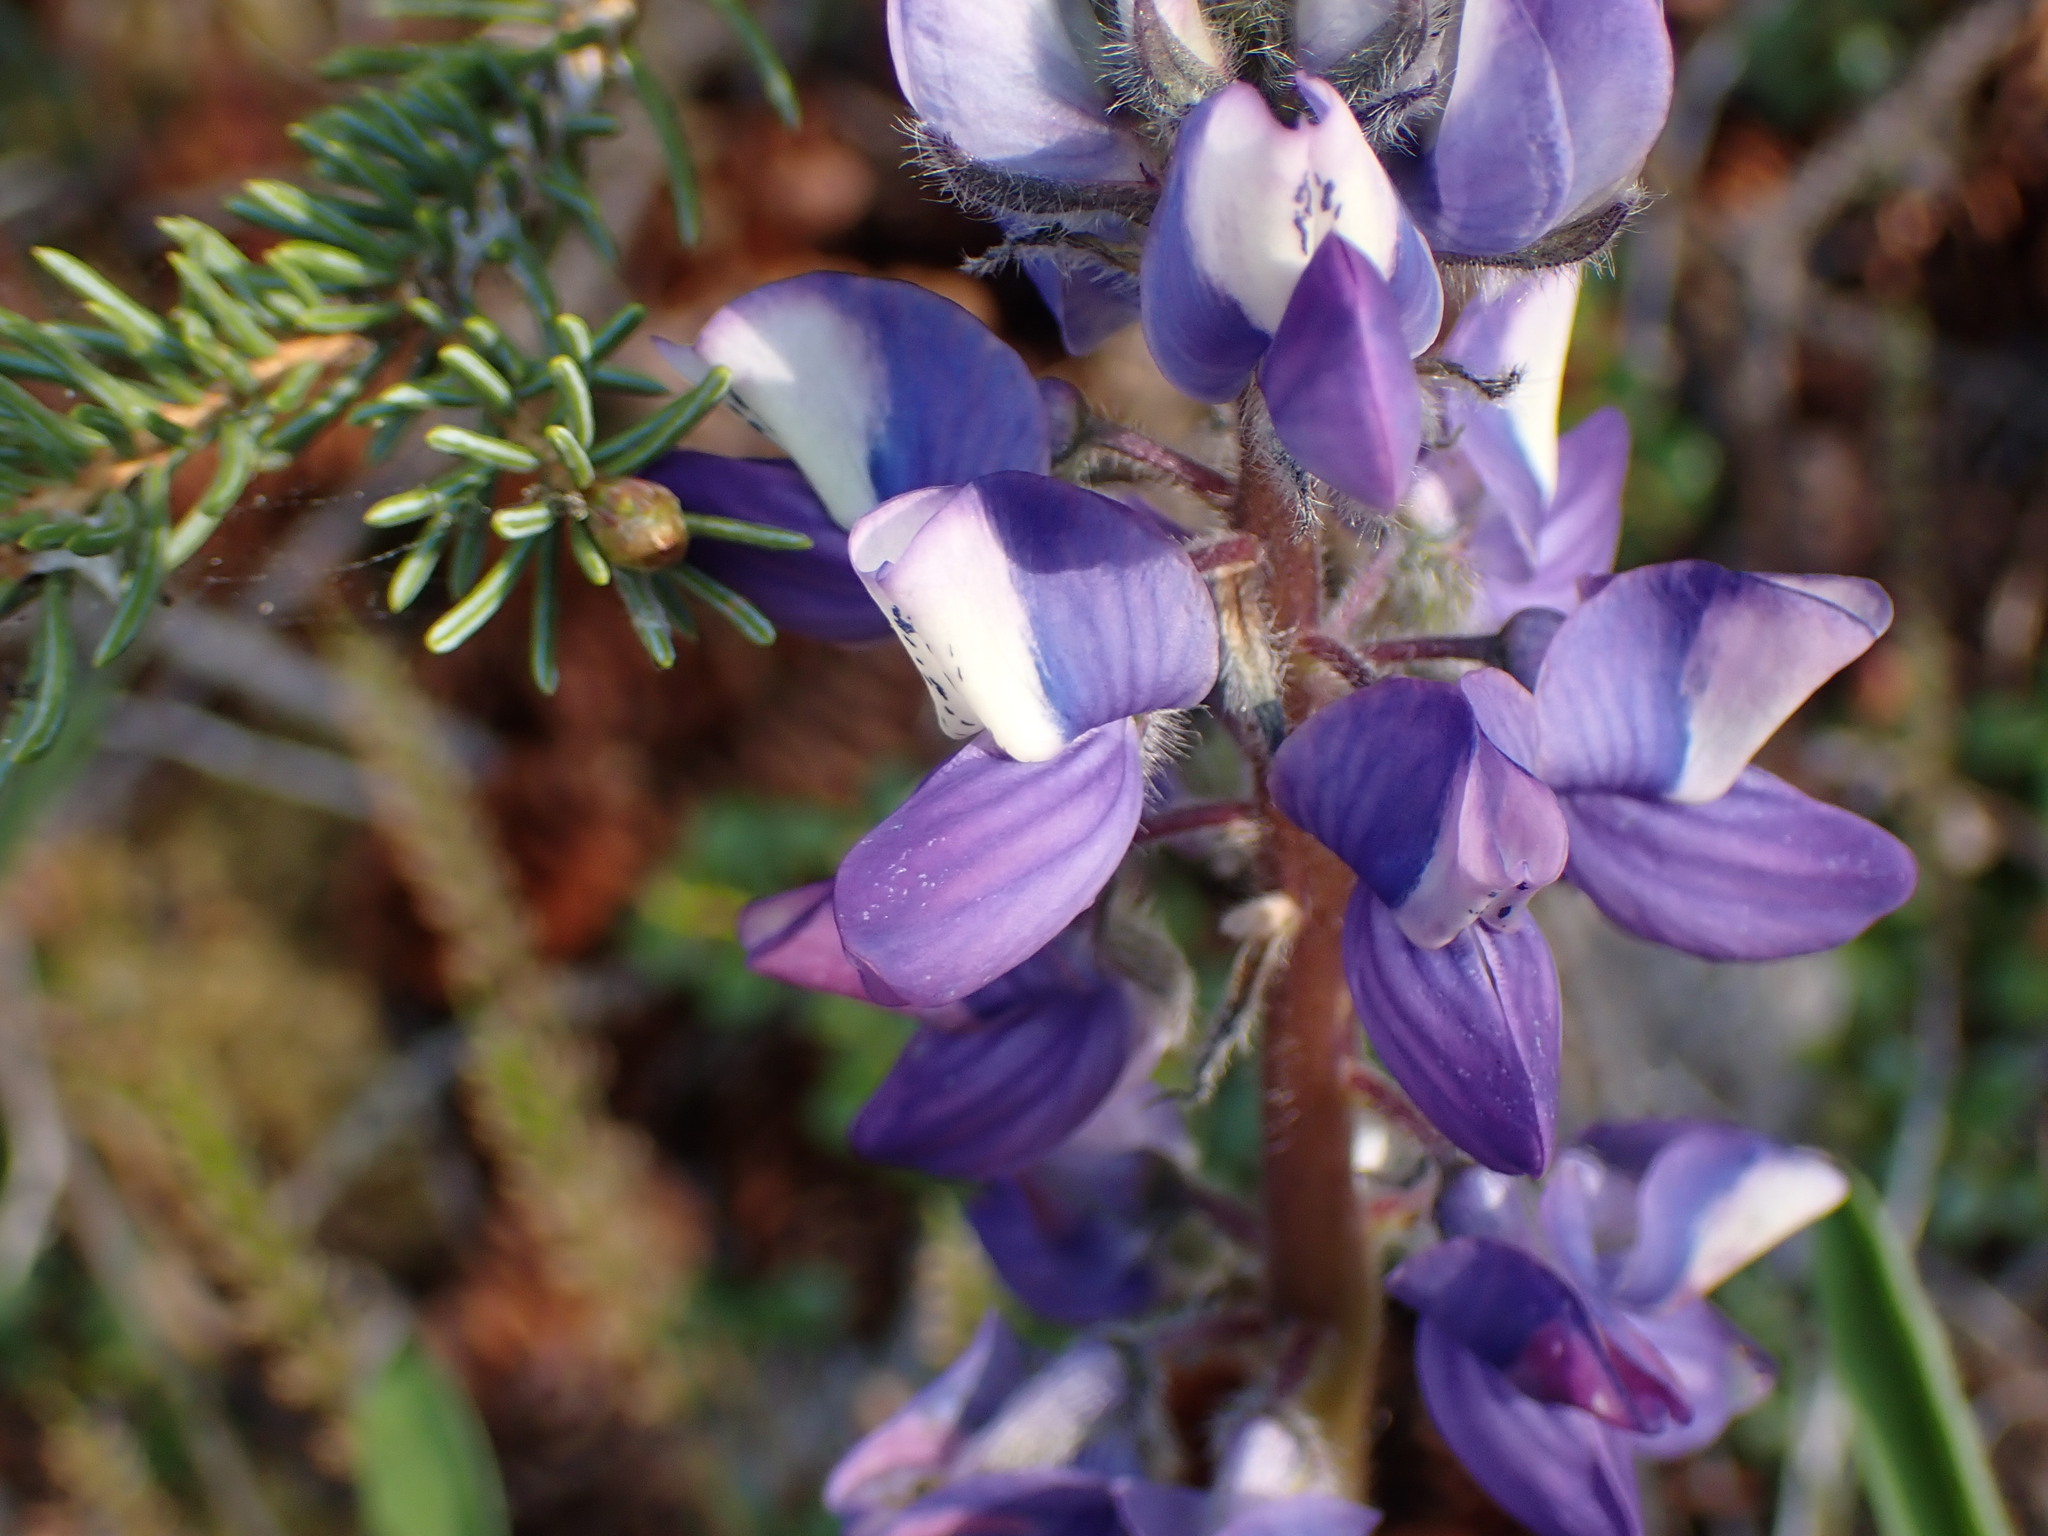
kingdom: Plantae
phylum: Tracheophyta
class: Magnoliopsida
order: Fabales
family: Fabaceae
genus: Lupinus
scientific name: Lupinus arcticus
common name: Arctic lupine
